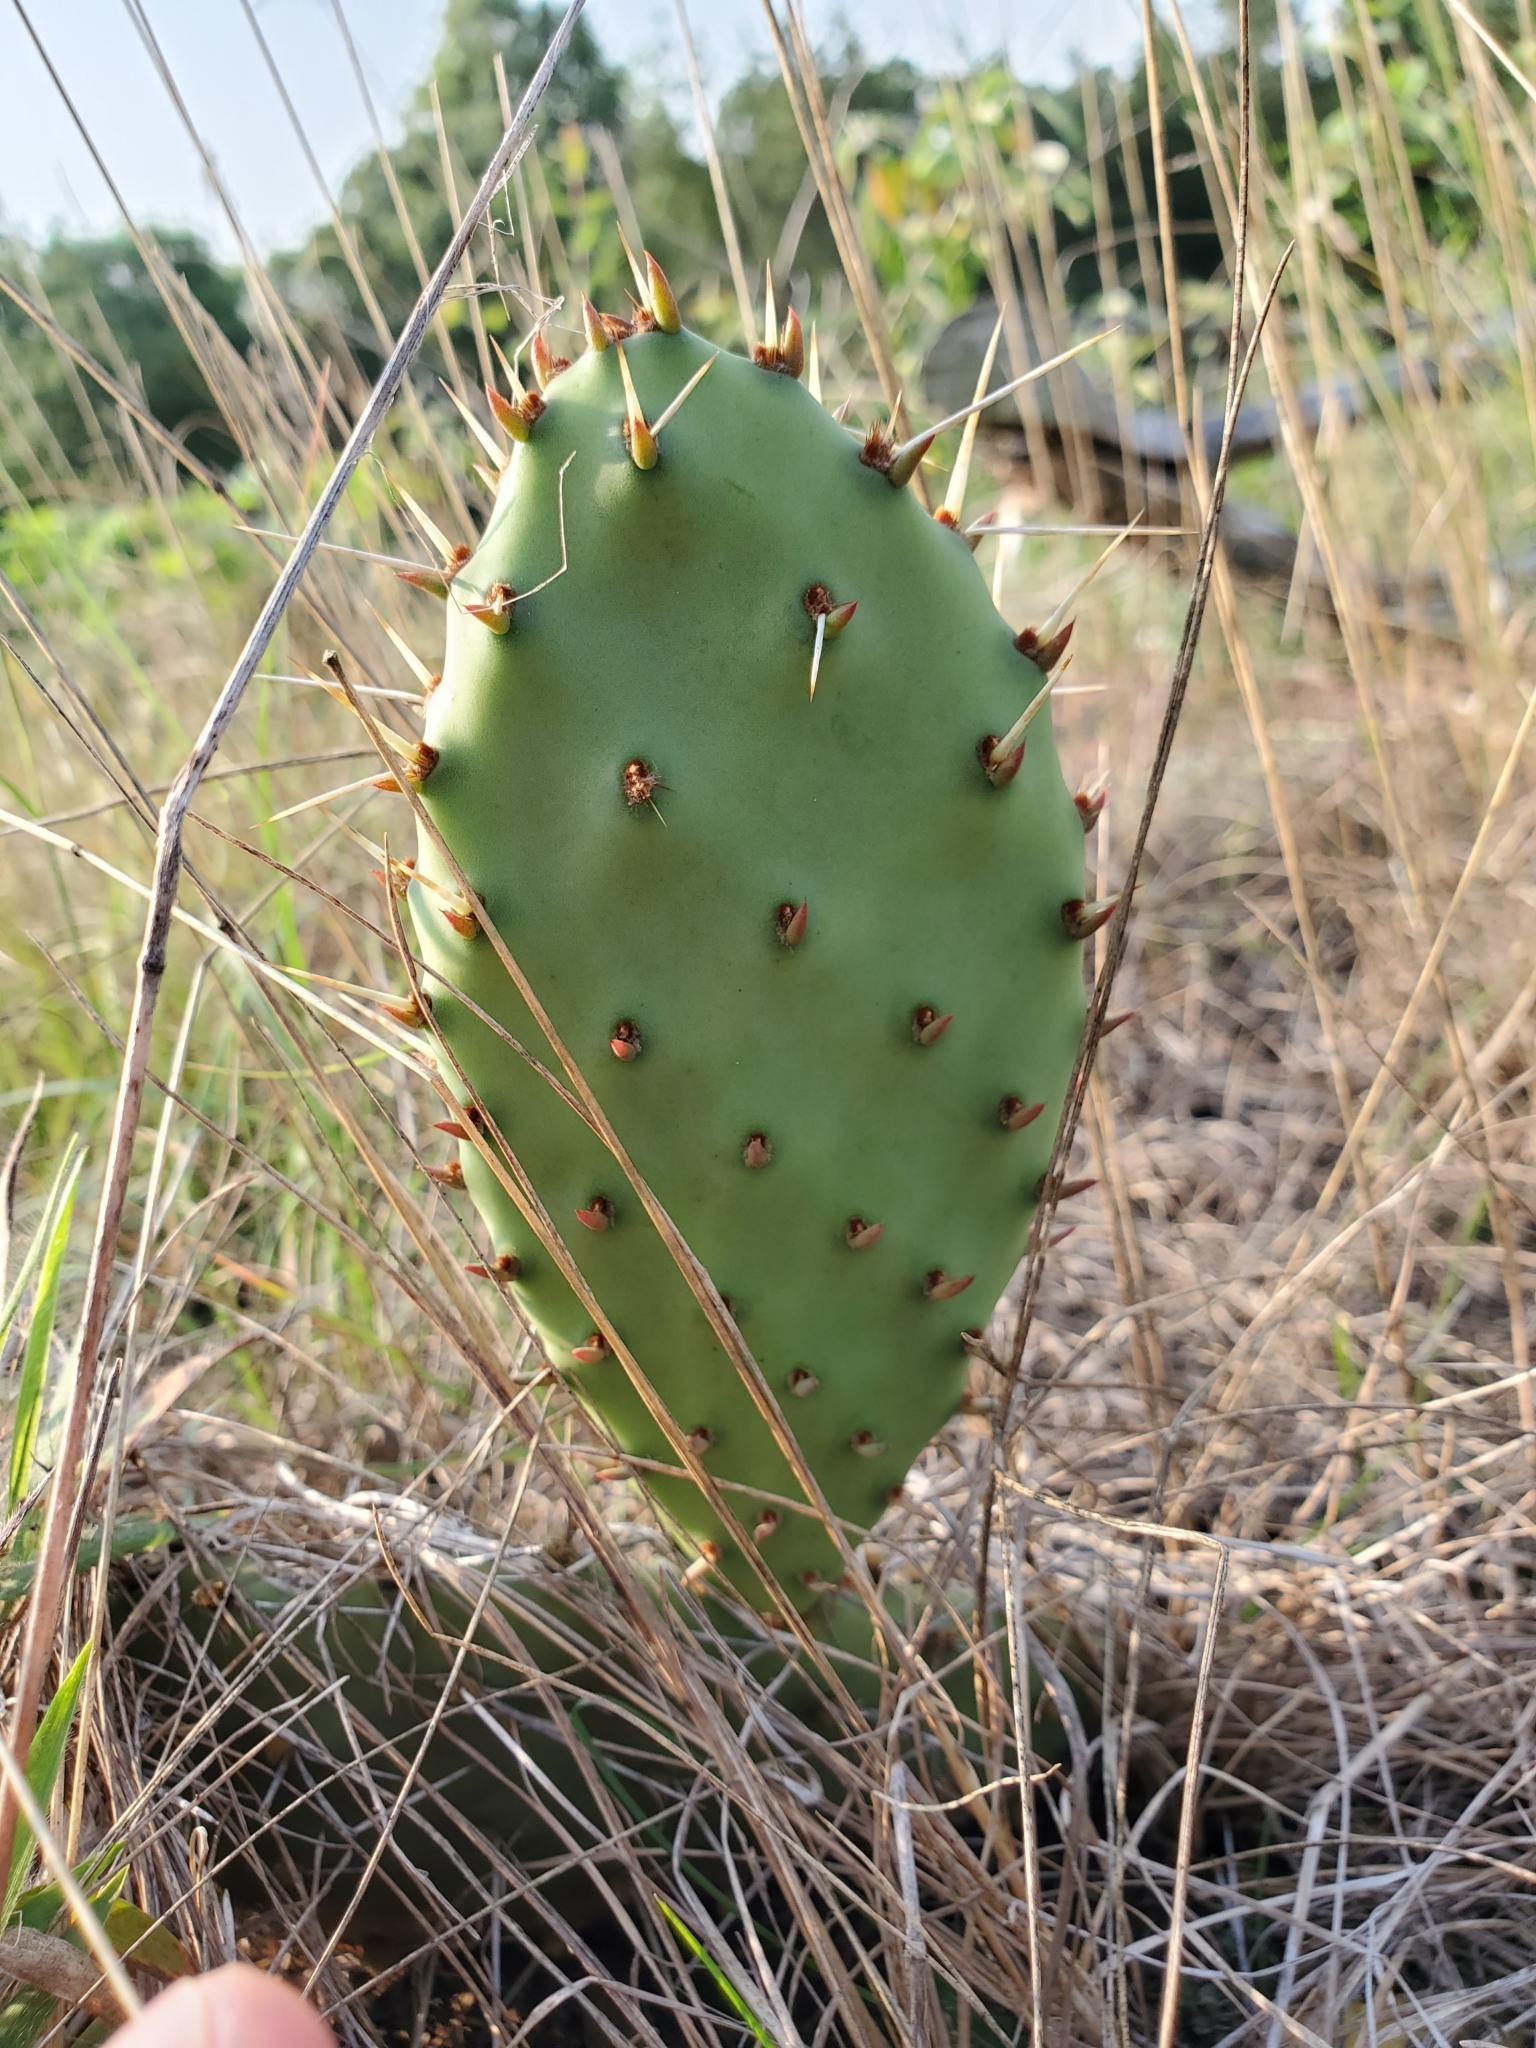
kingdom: Plantae
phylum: Tracheophyta
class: Magnoliopsida
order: Caryophyllales
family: Cactaceae
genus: Opuntia
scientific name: Opuntia macrorhiza
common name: Grassland pricklypear
